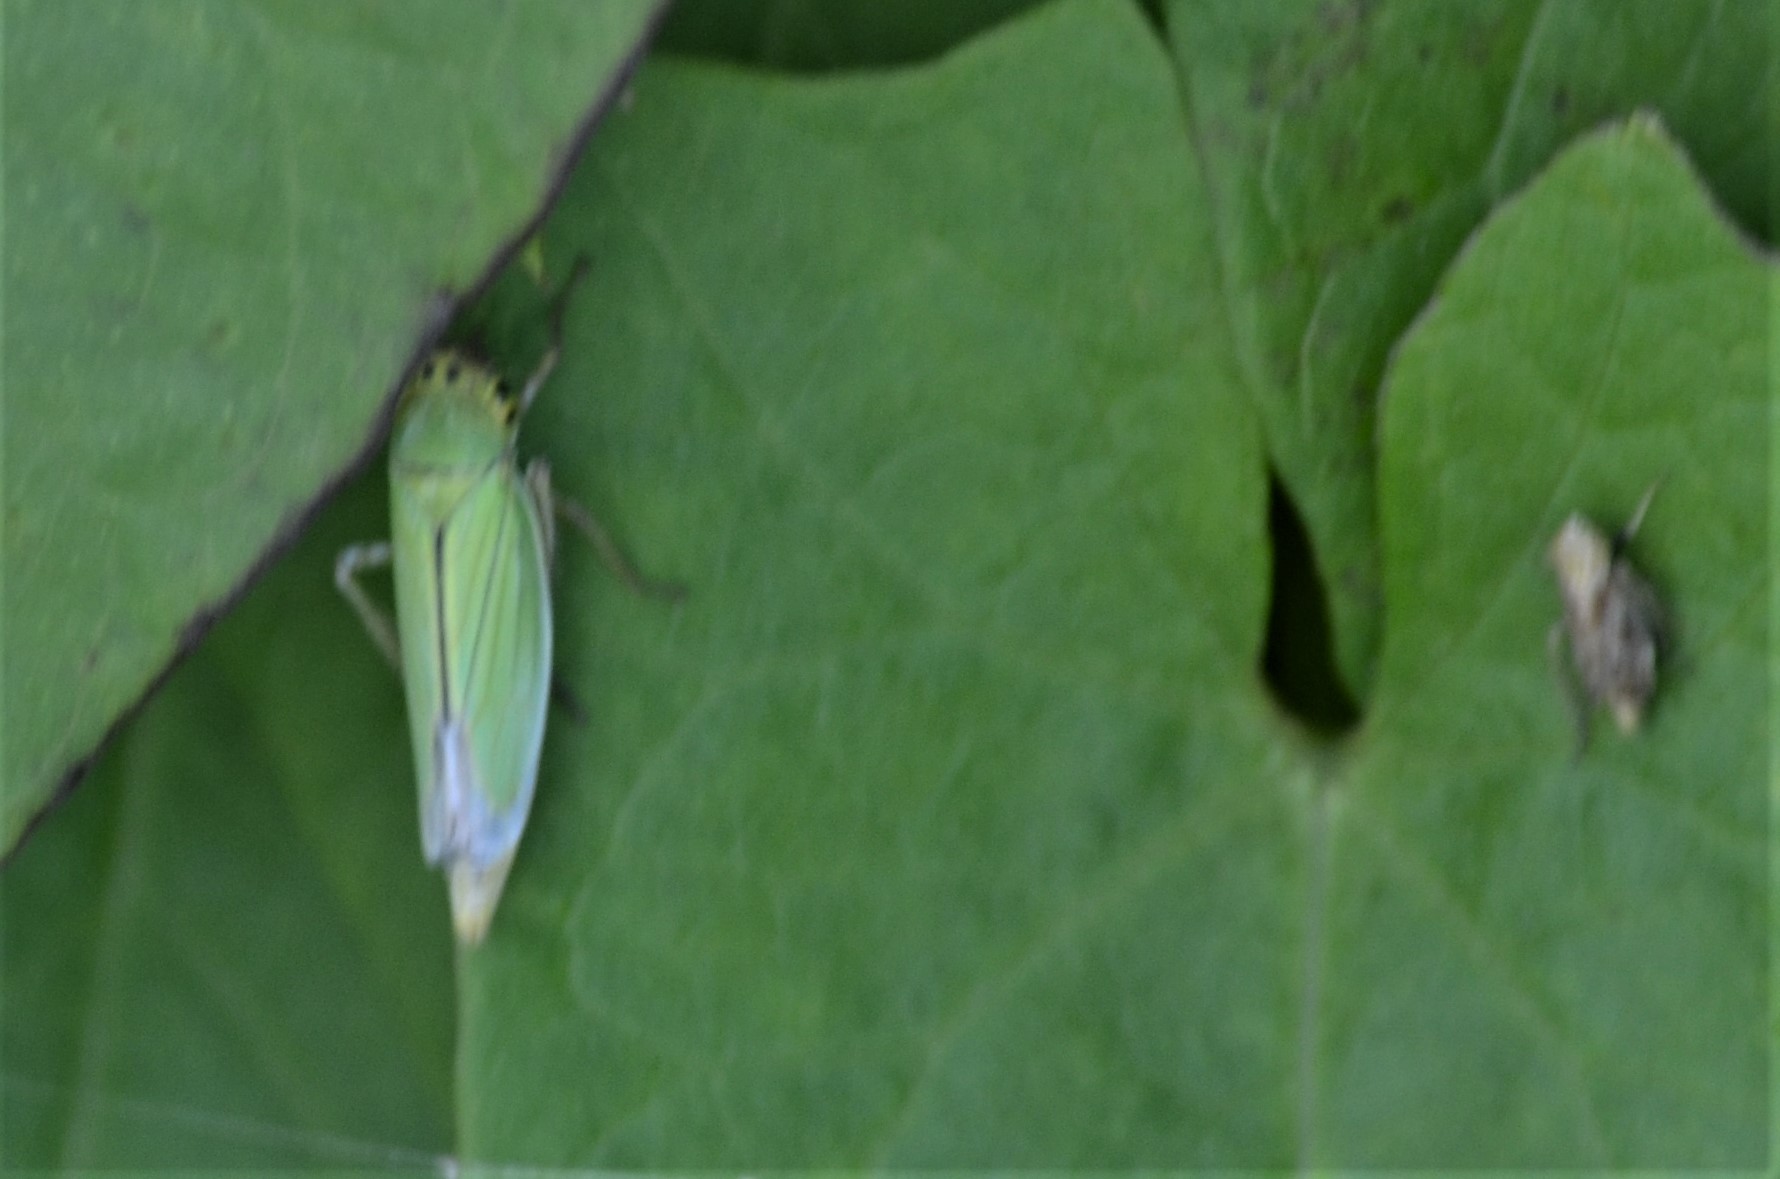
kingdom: Animalia
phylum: Arthropoda
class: Insecta
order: Hemiptera
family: Cicadellidae
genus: Cicadella
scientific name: Cicadella viridis
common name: Leafhopper
